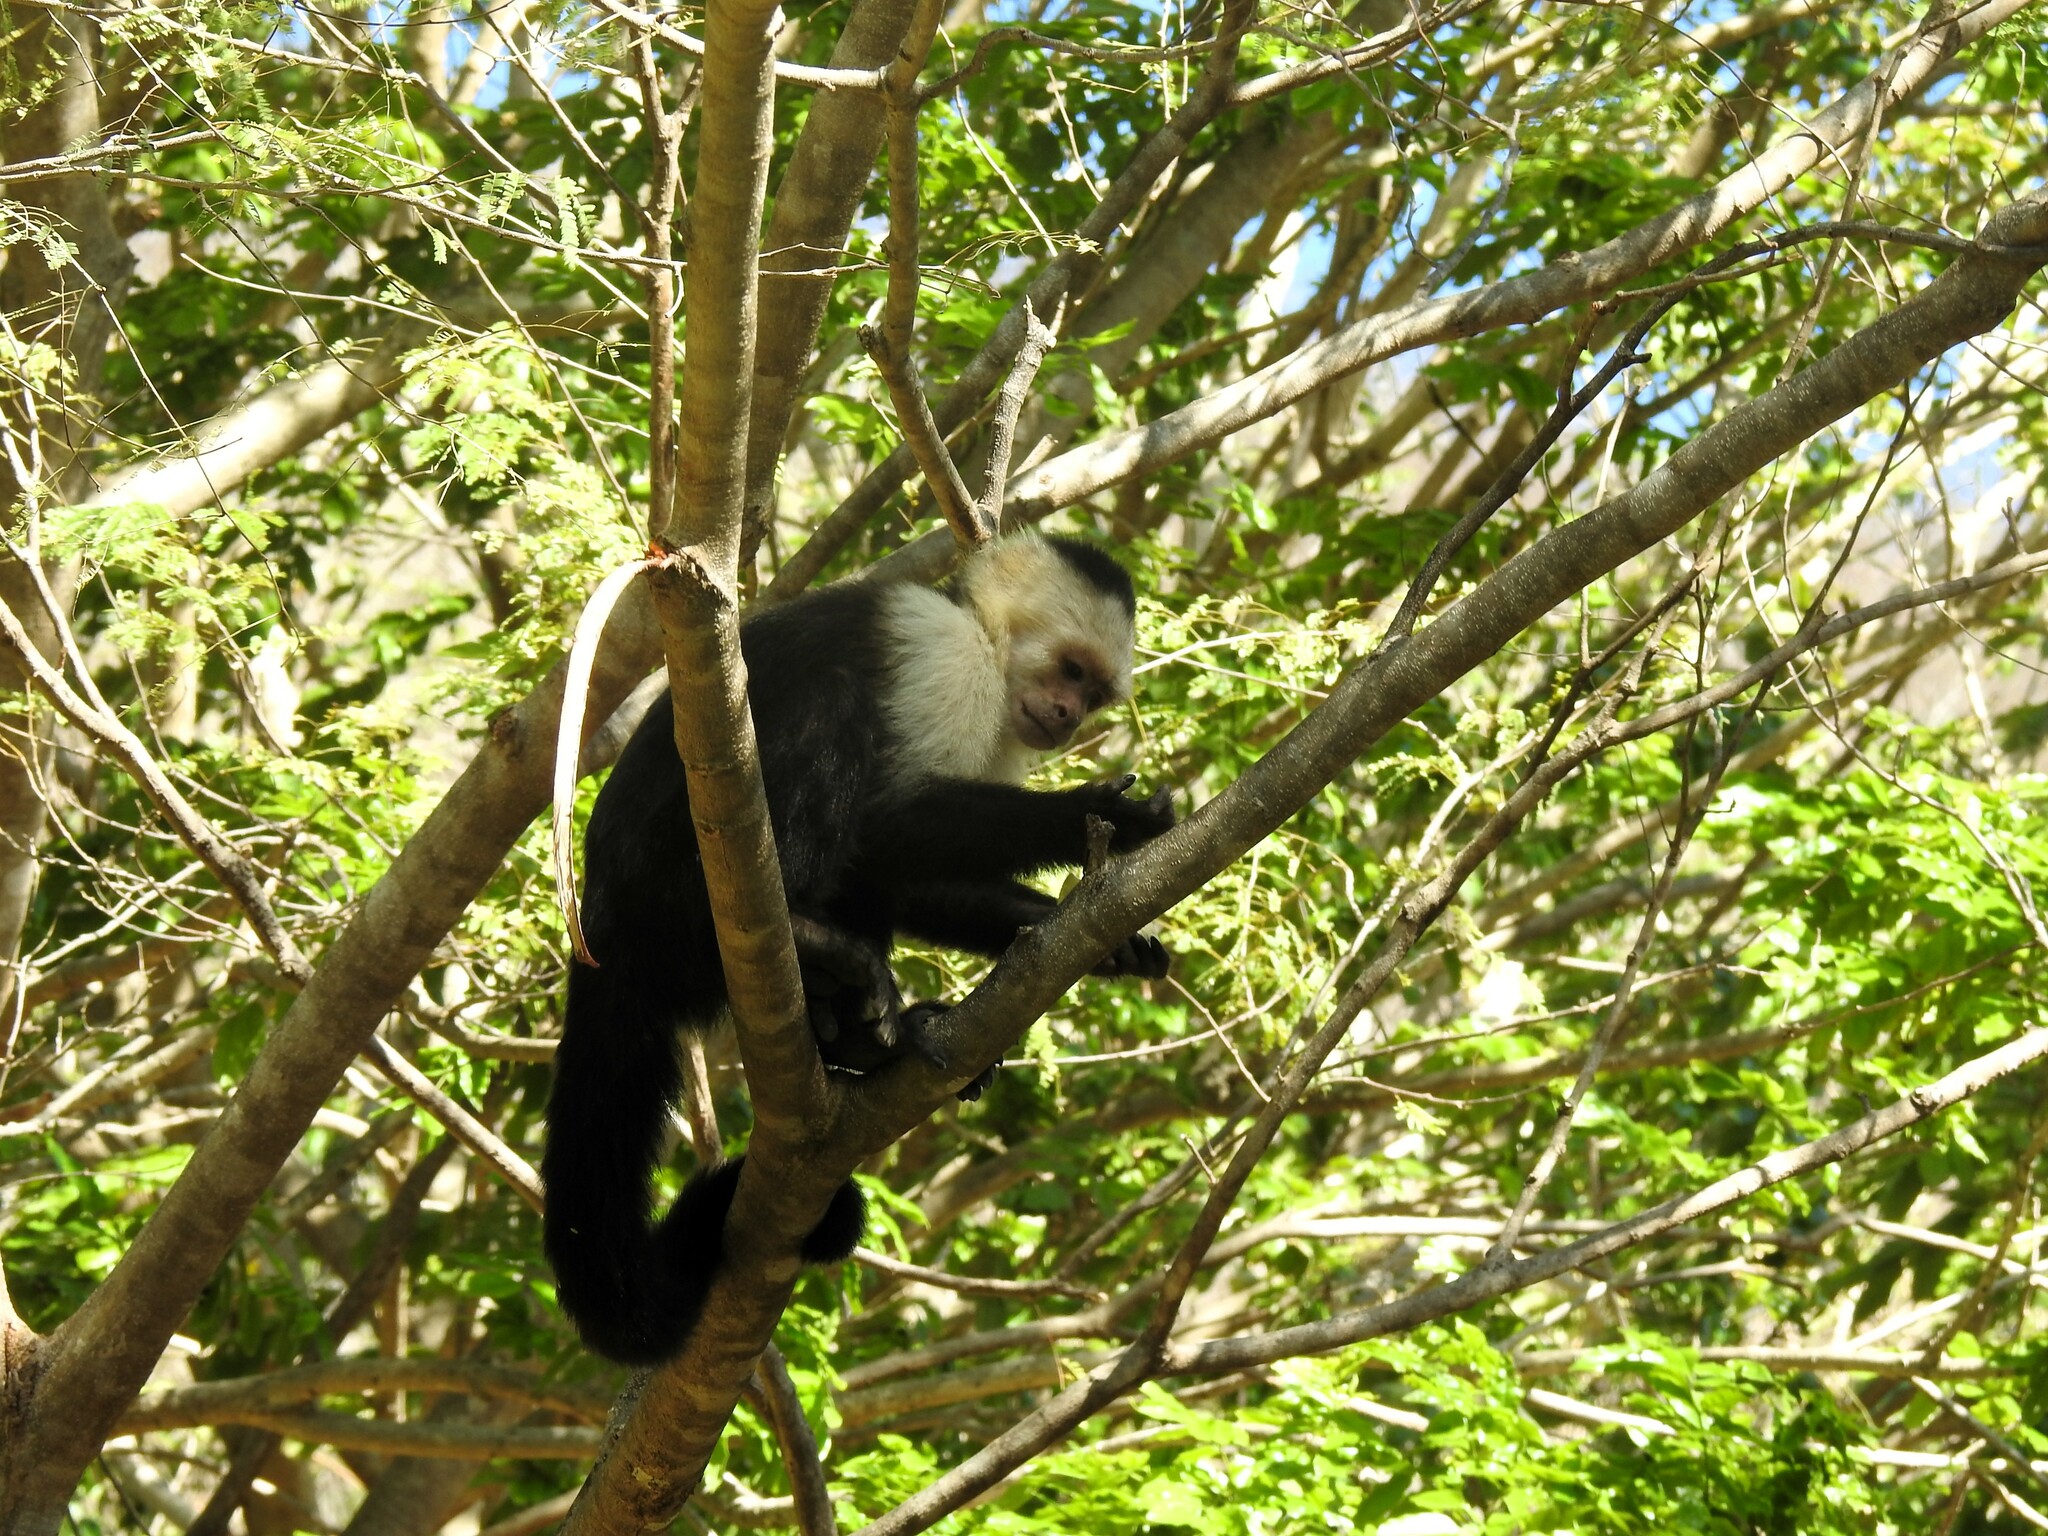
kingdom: Animalia
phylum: Chordata
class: Mammalia
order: Primates
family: Cebidae
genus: Cebus
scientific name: Cebus imitator
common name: Panamanian white-faced capuchin
